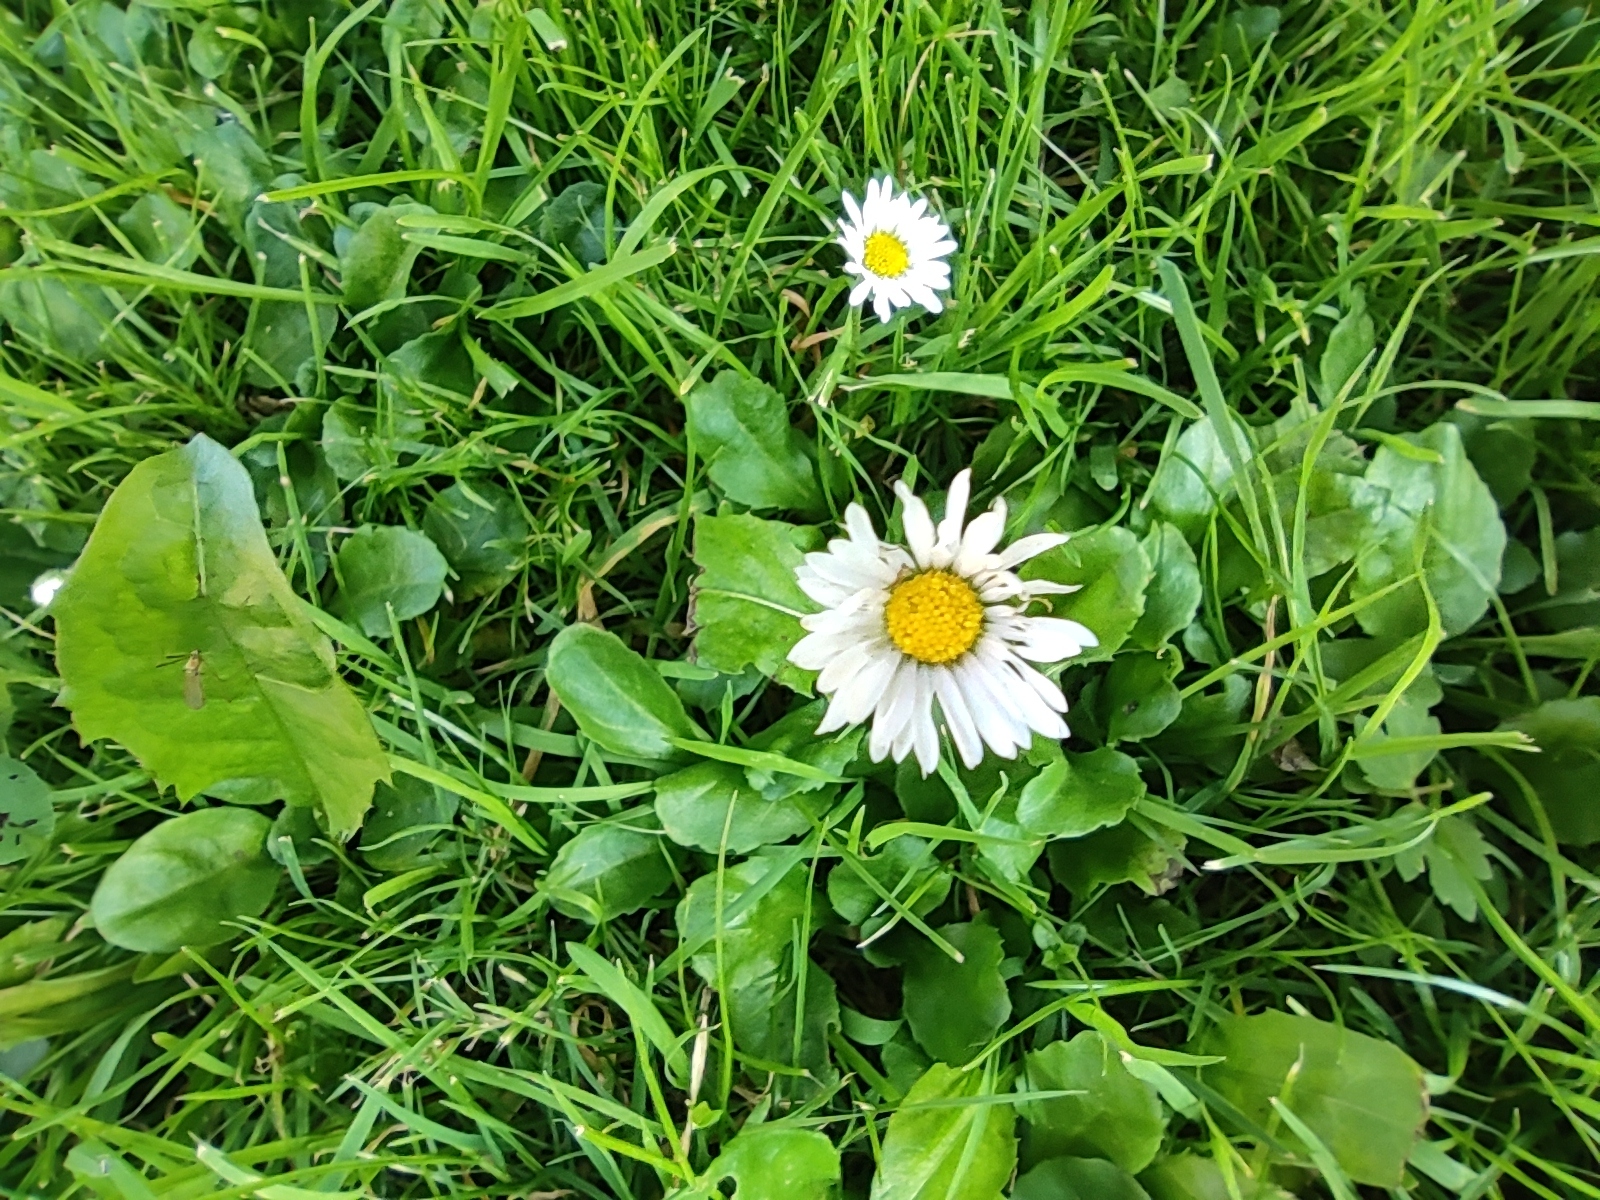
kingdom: Plantae
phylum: Tracheophyta
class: Magnoliopsida
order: Asterales
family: Asteraceae
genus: Bellis
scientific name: Bellis perennis
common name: Lawndaisy
